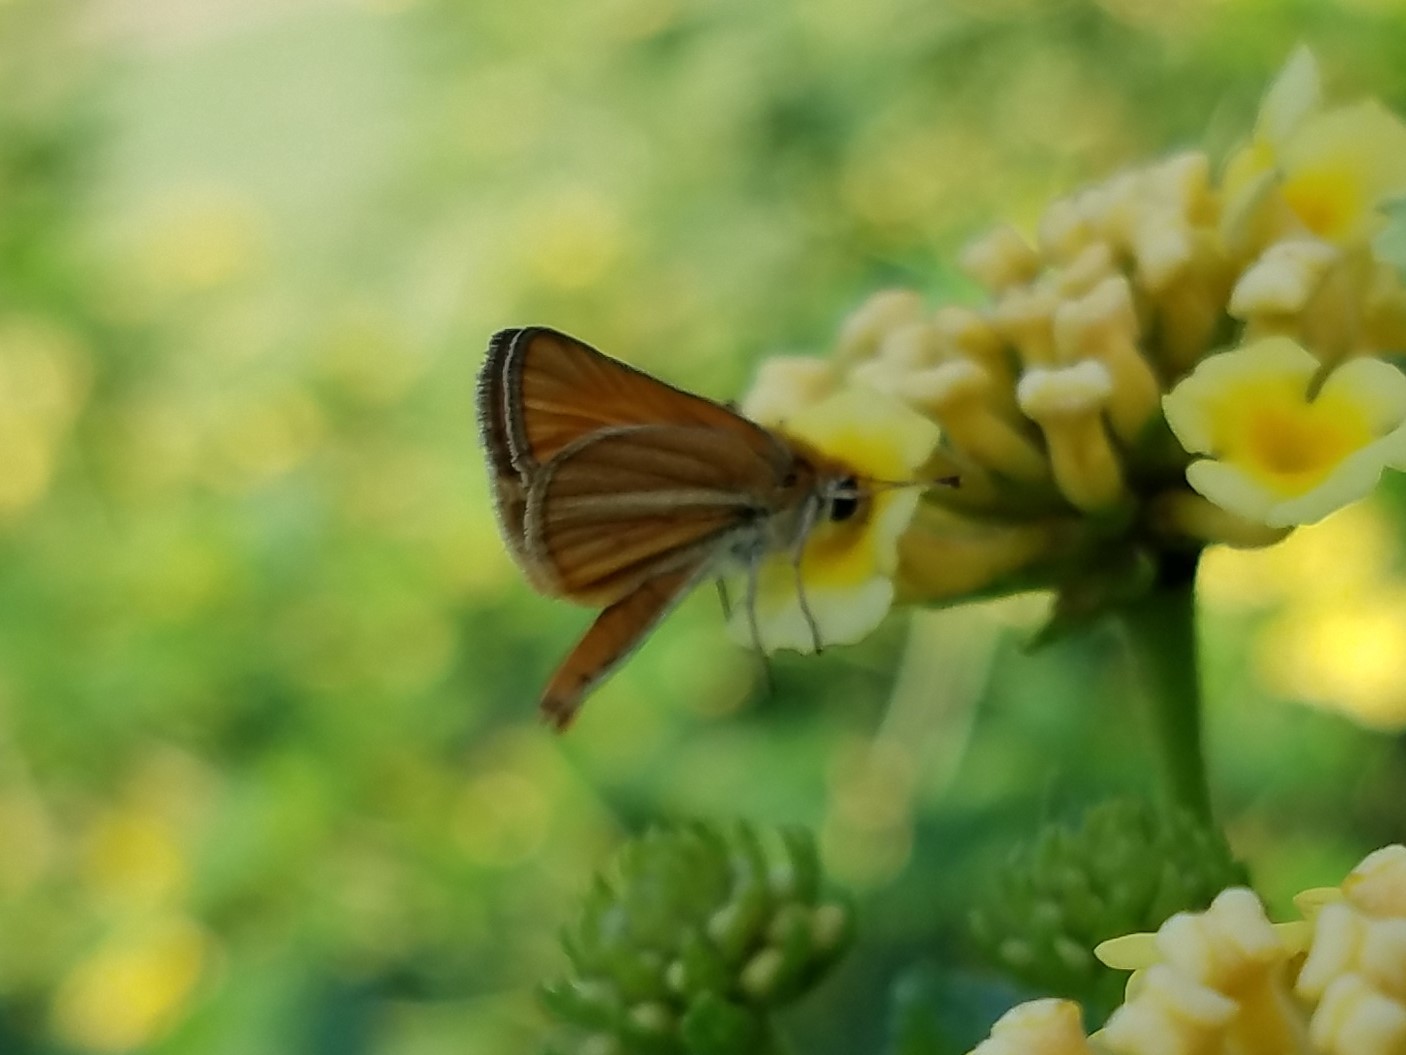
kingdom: Animalia
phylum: Arthropoda
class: Insecta
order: Lepidoptera
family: Hesperiidae
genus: Copaeodes
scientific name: Copaeodes minima
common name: Southern skipperling
